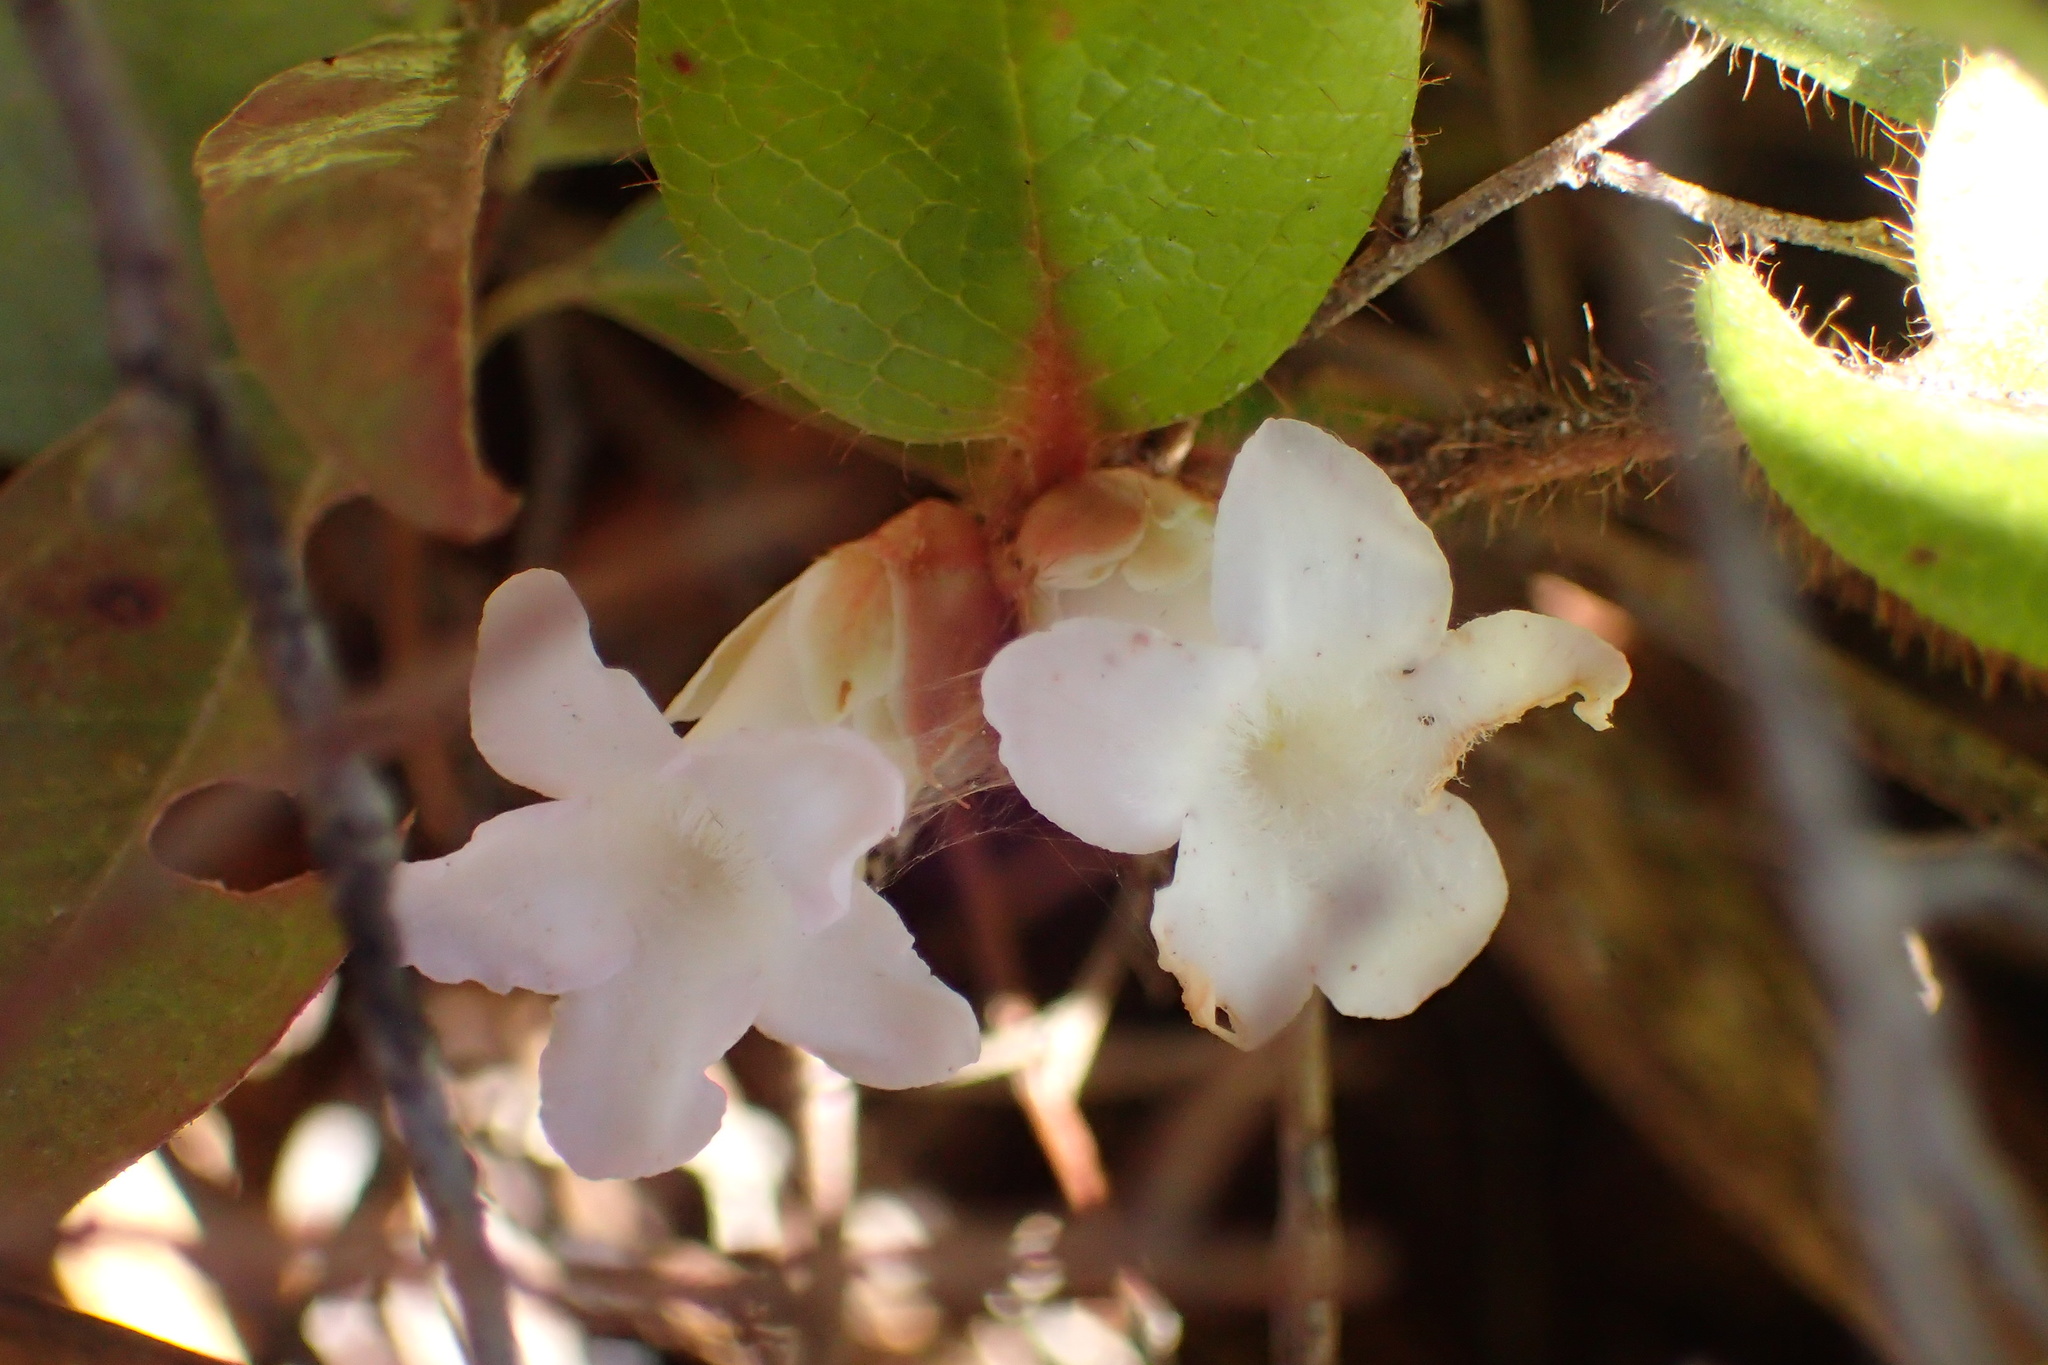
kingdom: Plantae
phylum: Tracheophyta
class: Magnoliopsida
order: Ericales
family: Ericaceae
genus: Epigaea
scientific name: Epigaea repens
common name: Gravelroot
